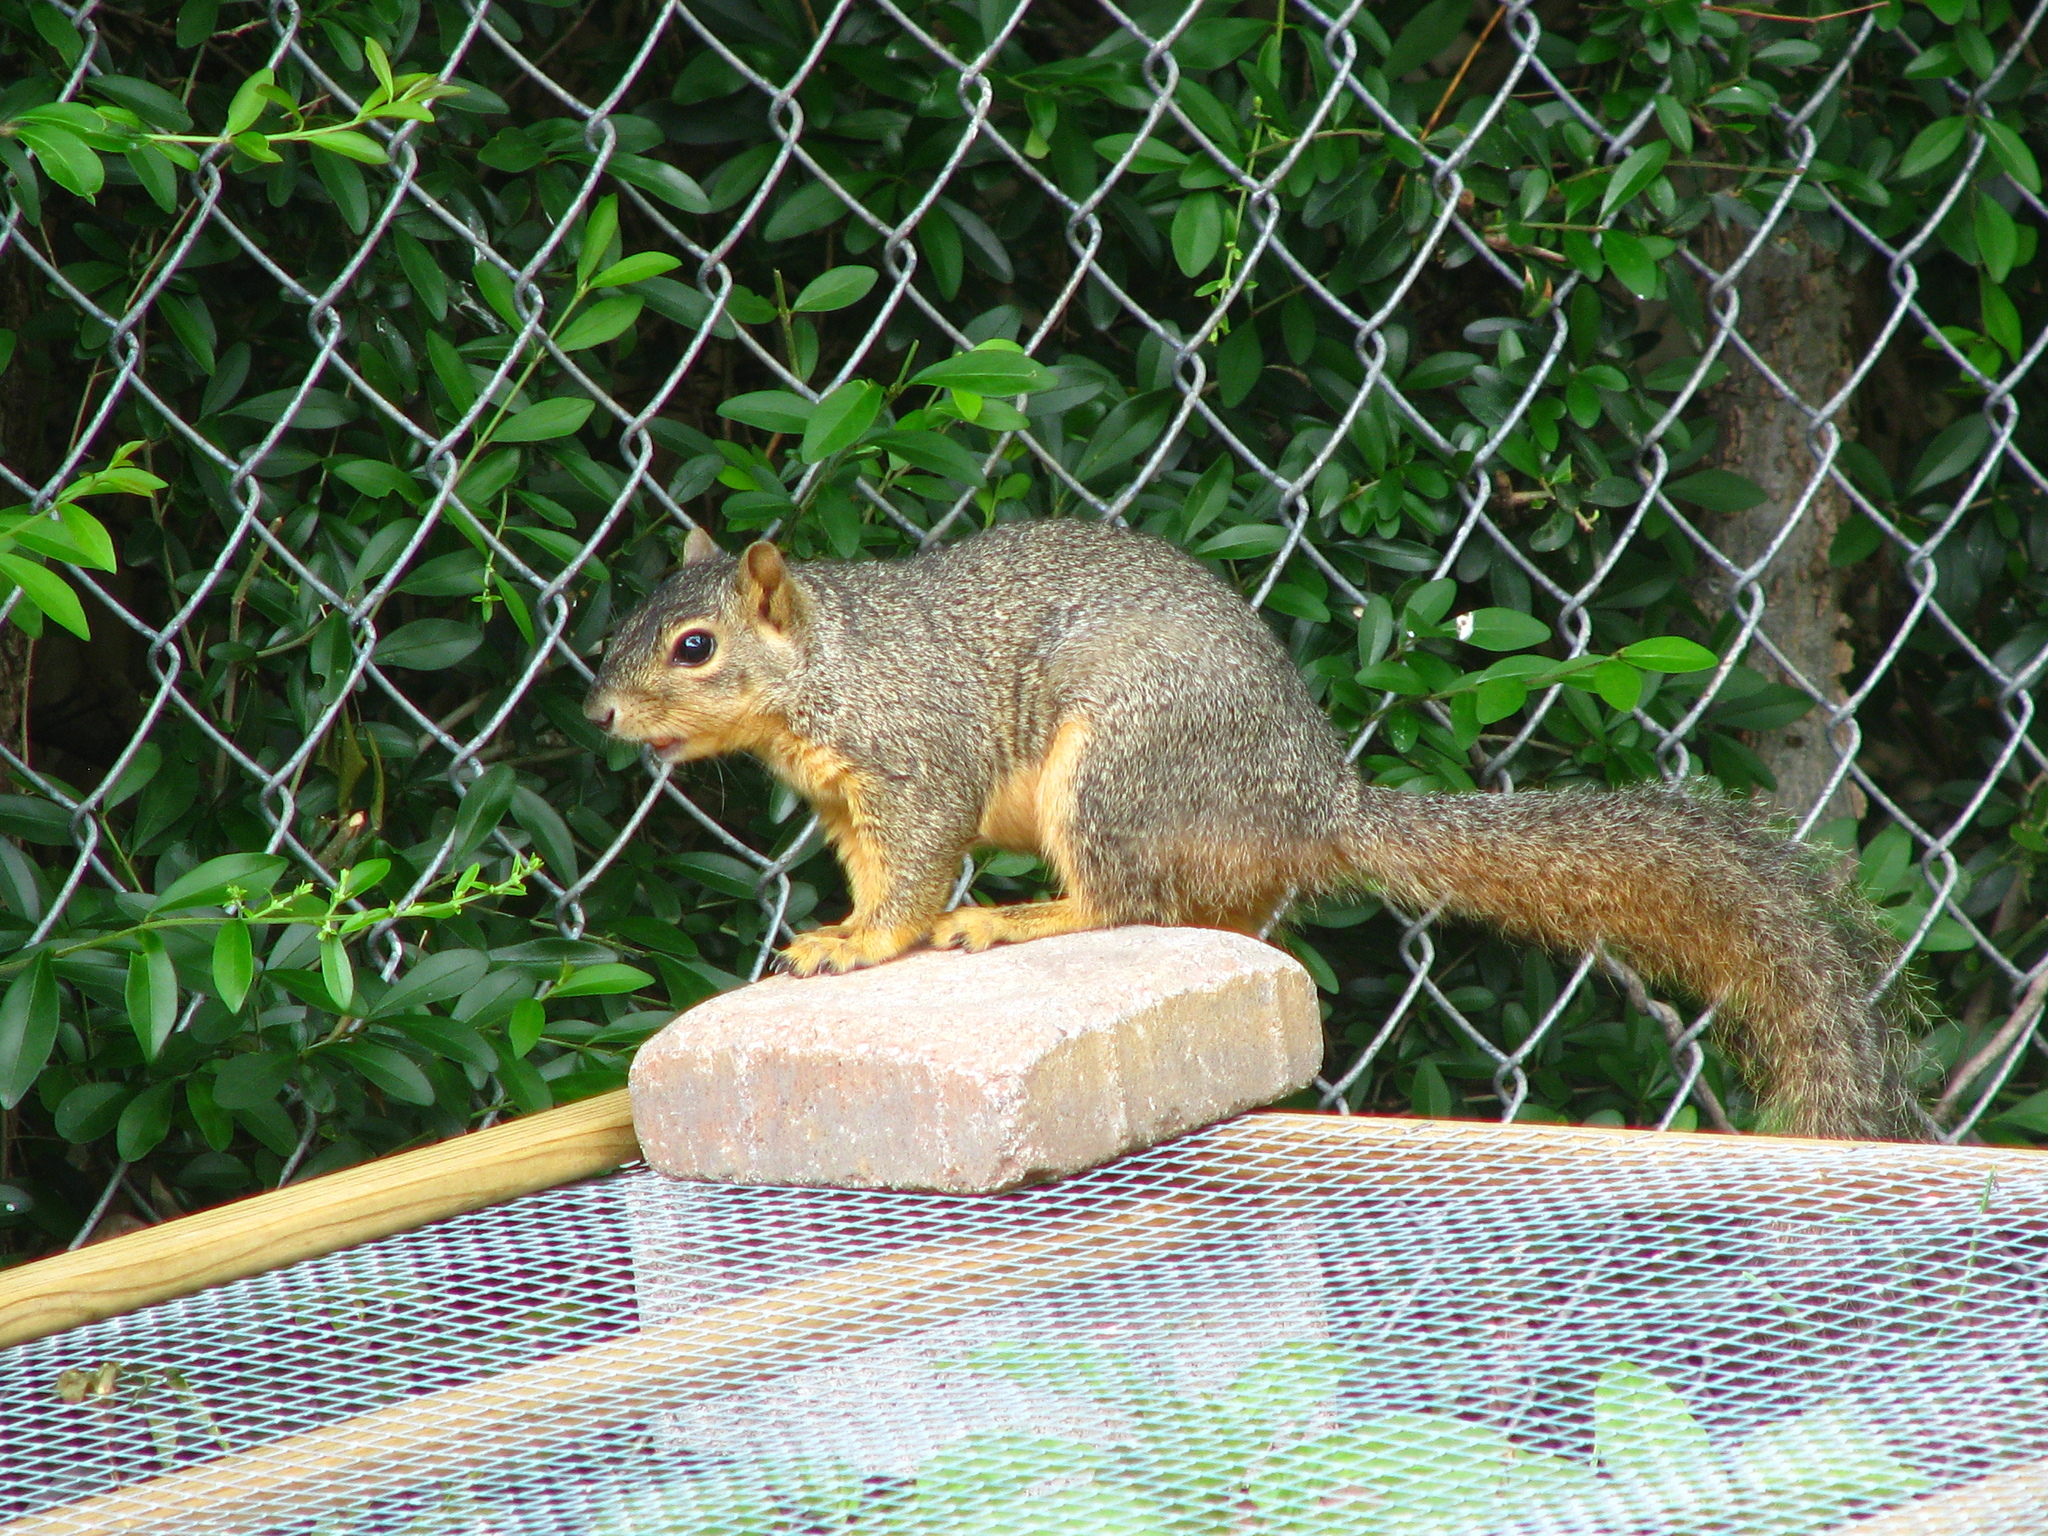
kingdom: Animalia
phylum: Chordata
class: Mammalia
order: Rodentia
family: Sciuridae
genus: Sciurus
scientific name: Sciurus niger
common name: Fox squirrel
